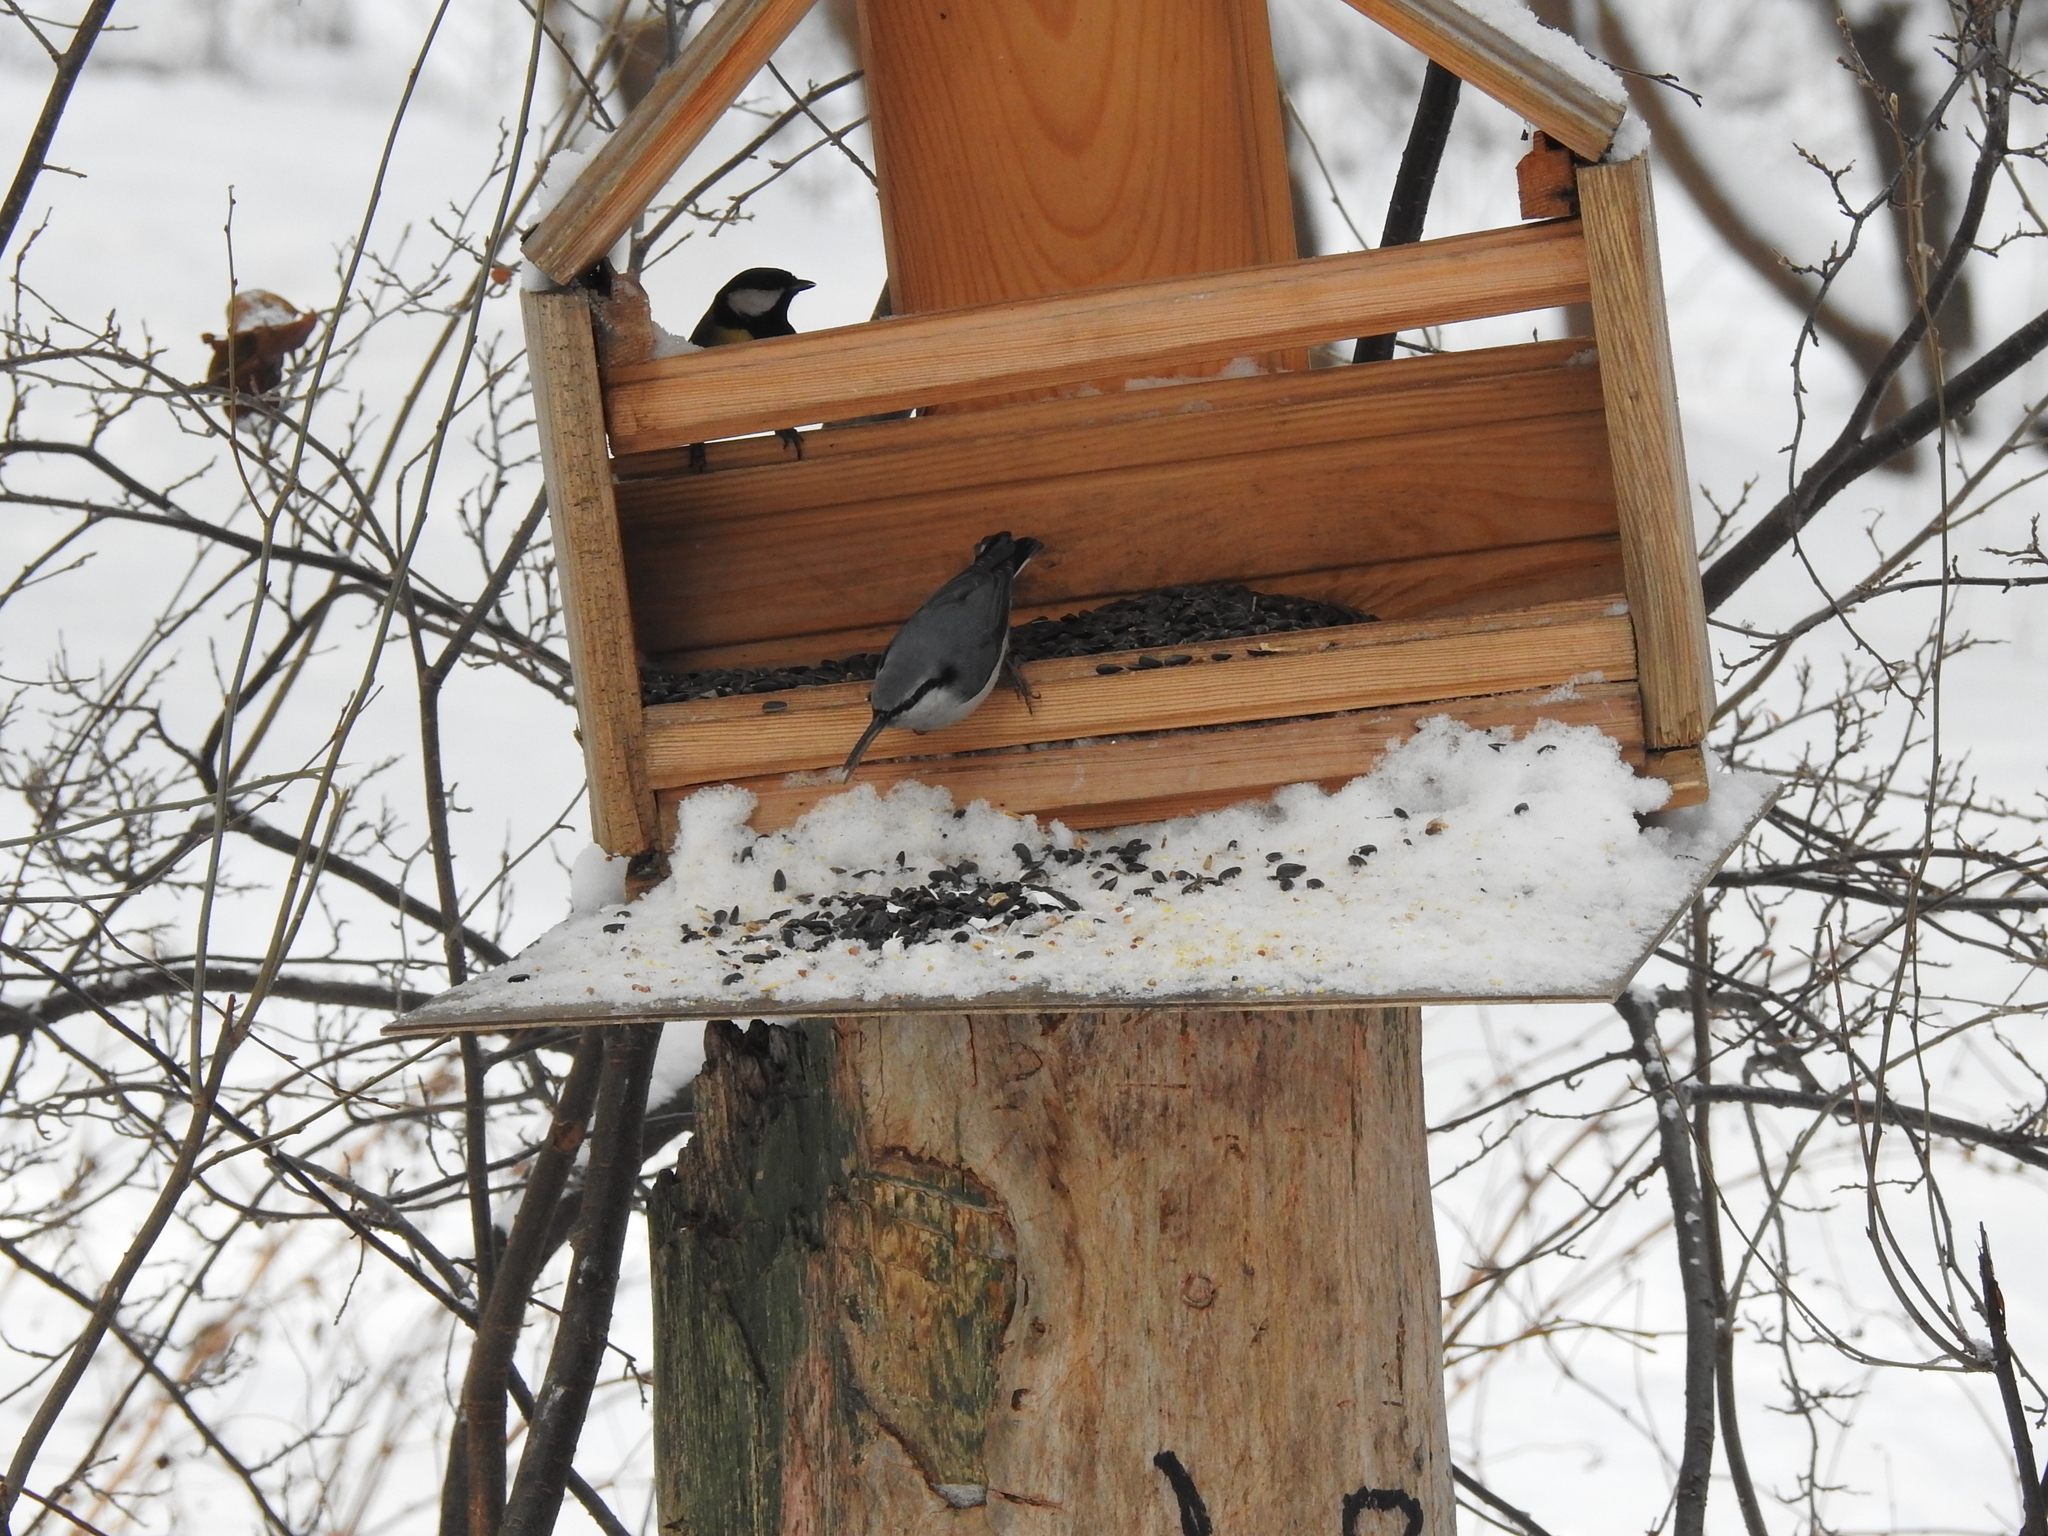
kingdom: Animalia
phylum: Chordata
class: Aves
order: Passeriformes
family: Sittidae
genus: Sitta
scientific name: Sitta europaea
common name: Eurasian nuthatch
